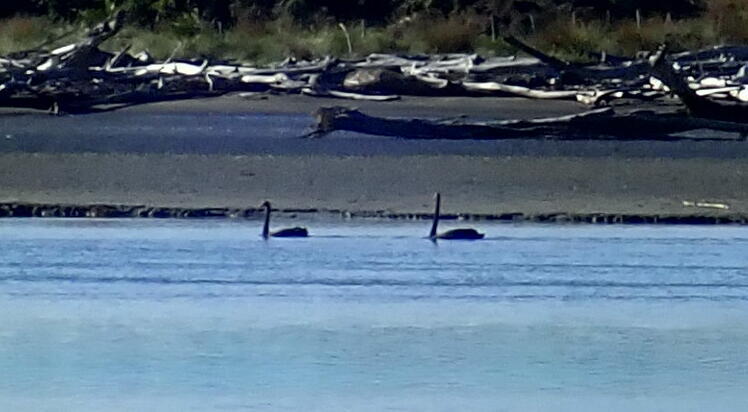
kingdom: Animalia
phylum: Chordata
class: Aves
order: Anseriformes
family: Anatidae
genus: Cygnus
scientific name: Cygnus atratus
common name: Black swan
